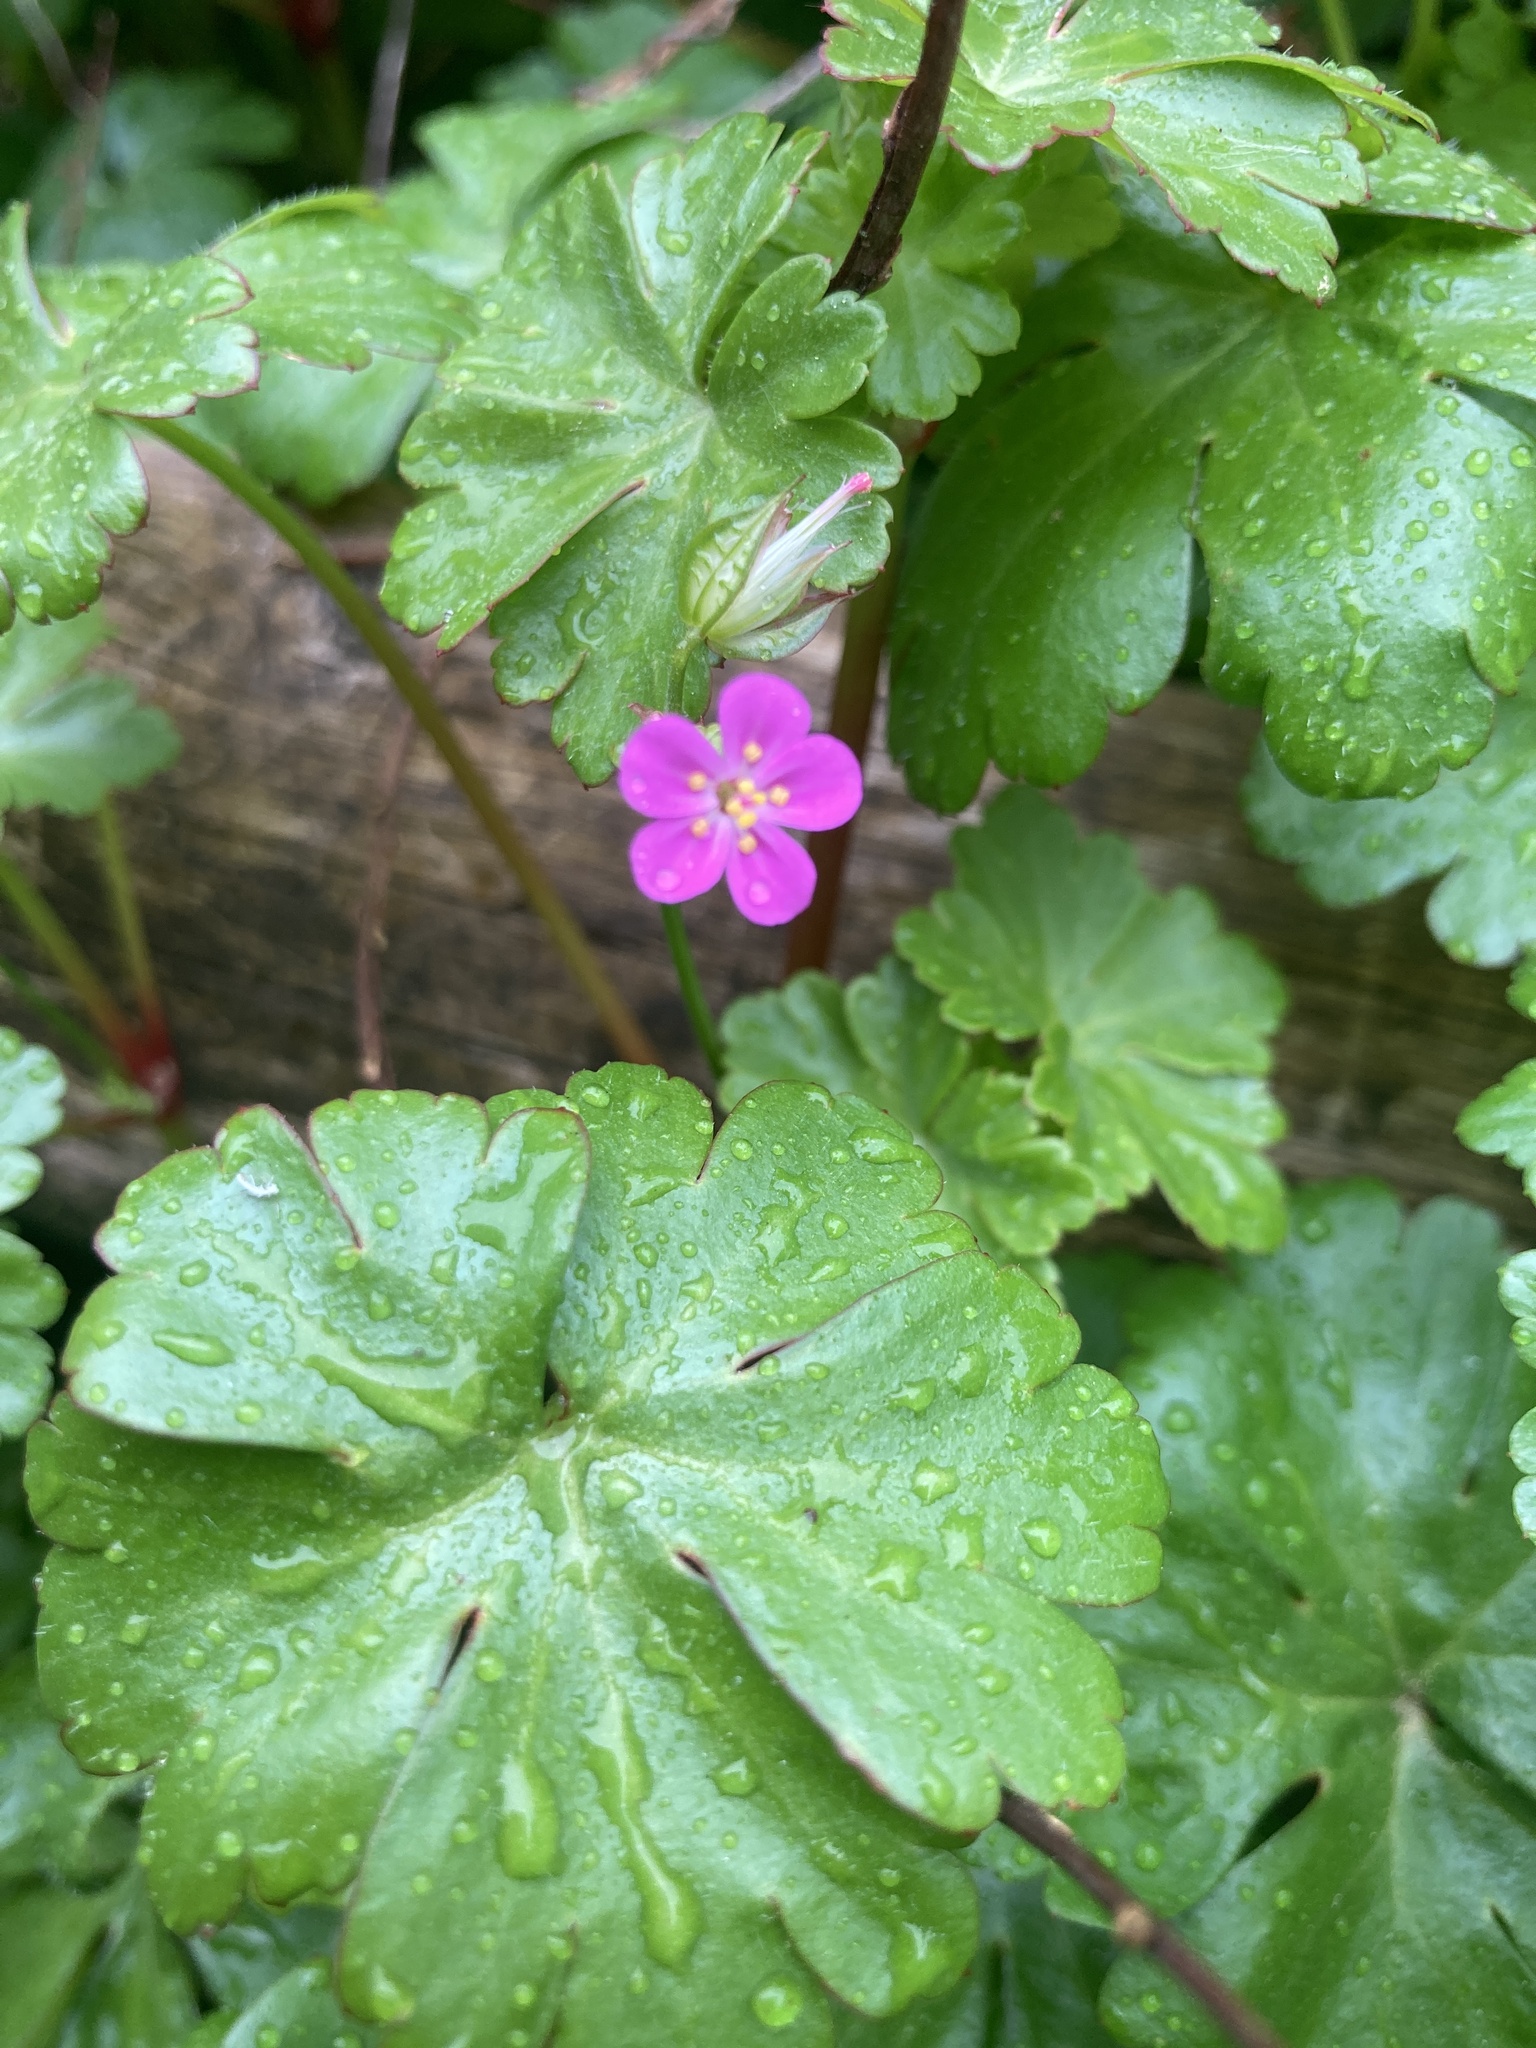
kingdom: Plantae
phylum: Tracheophyta
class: Magnoliopsida
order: Geraniales
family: Geraniaceae
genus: Geranium
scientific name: Geranium lucidum
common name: Shining crane's-bill
